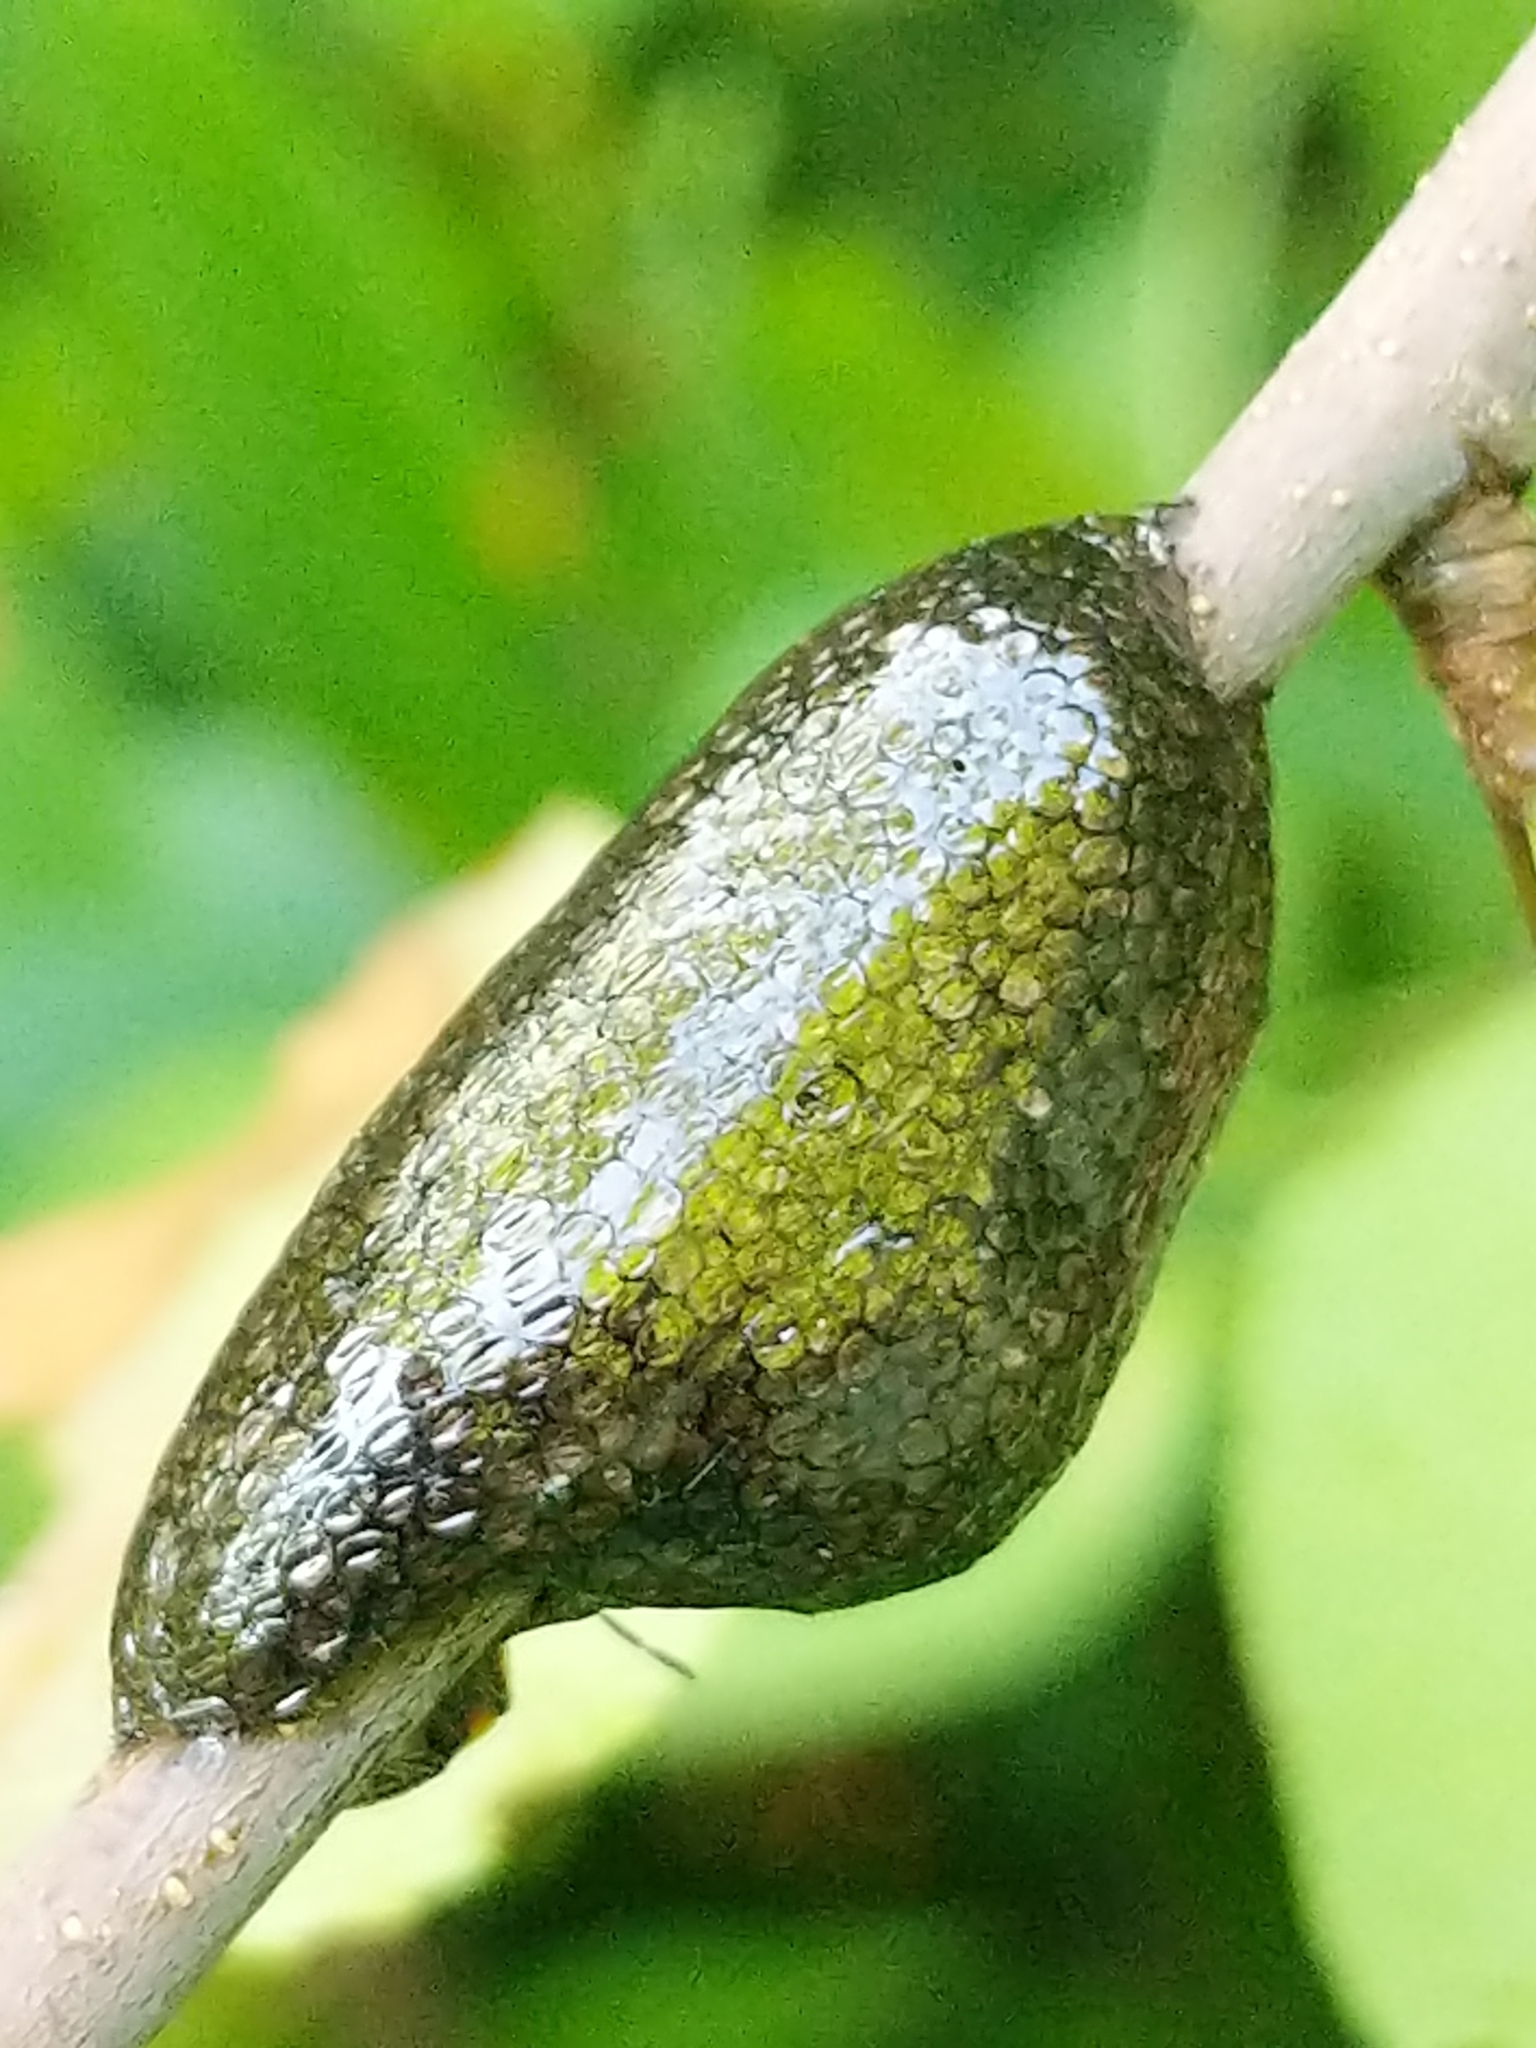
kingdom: Animalia
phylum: Arthropoda
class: Insecta
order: Lepidoptera
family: Lasiocampidae
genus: Malacosoma
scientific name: Malacosoma americana
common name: Eastern tent caterpillar moth
